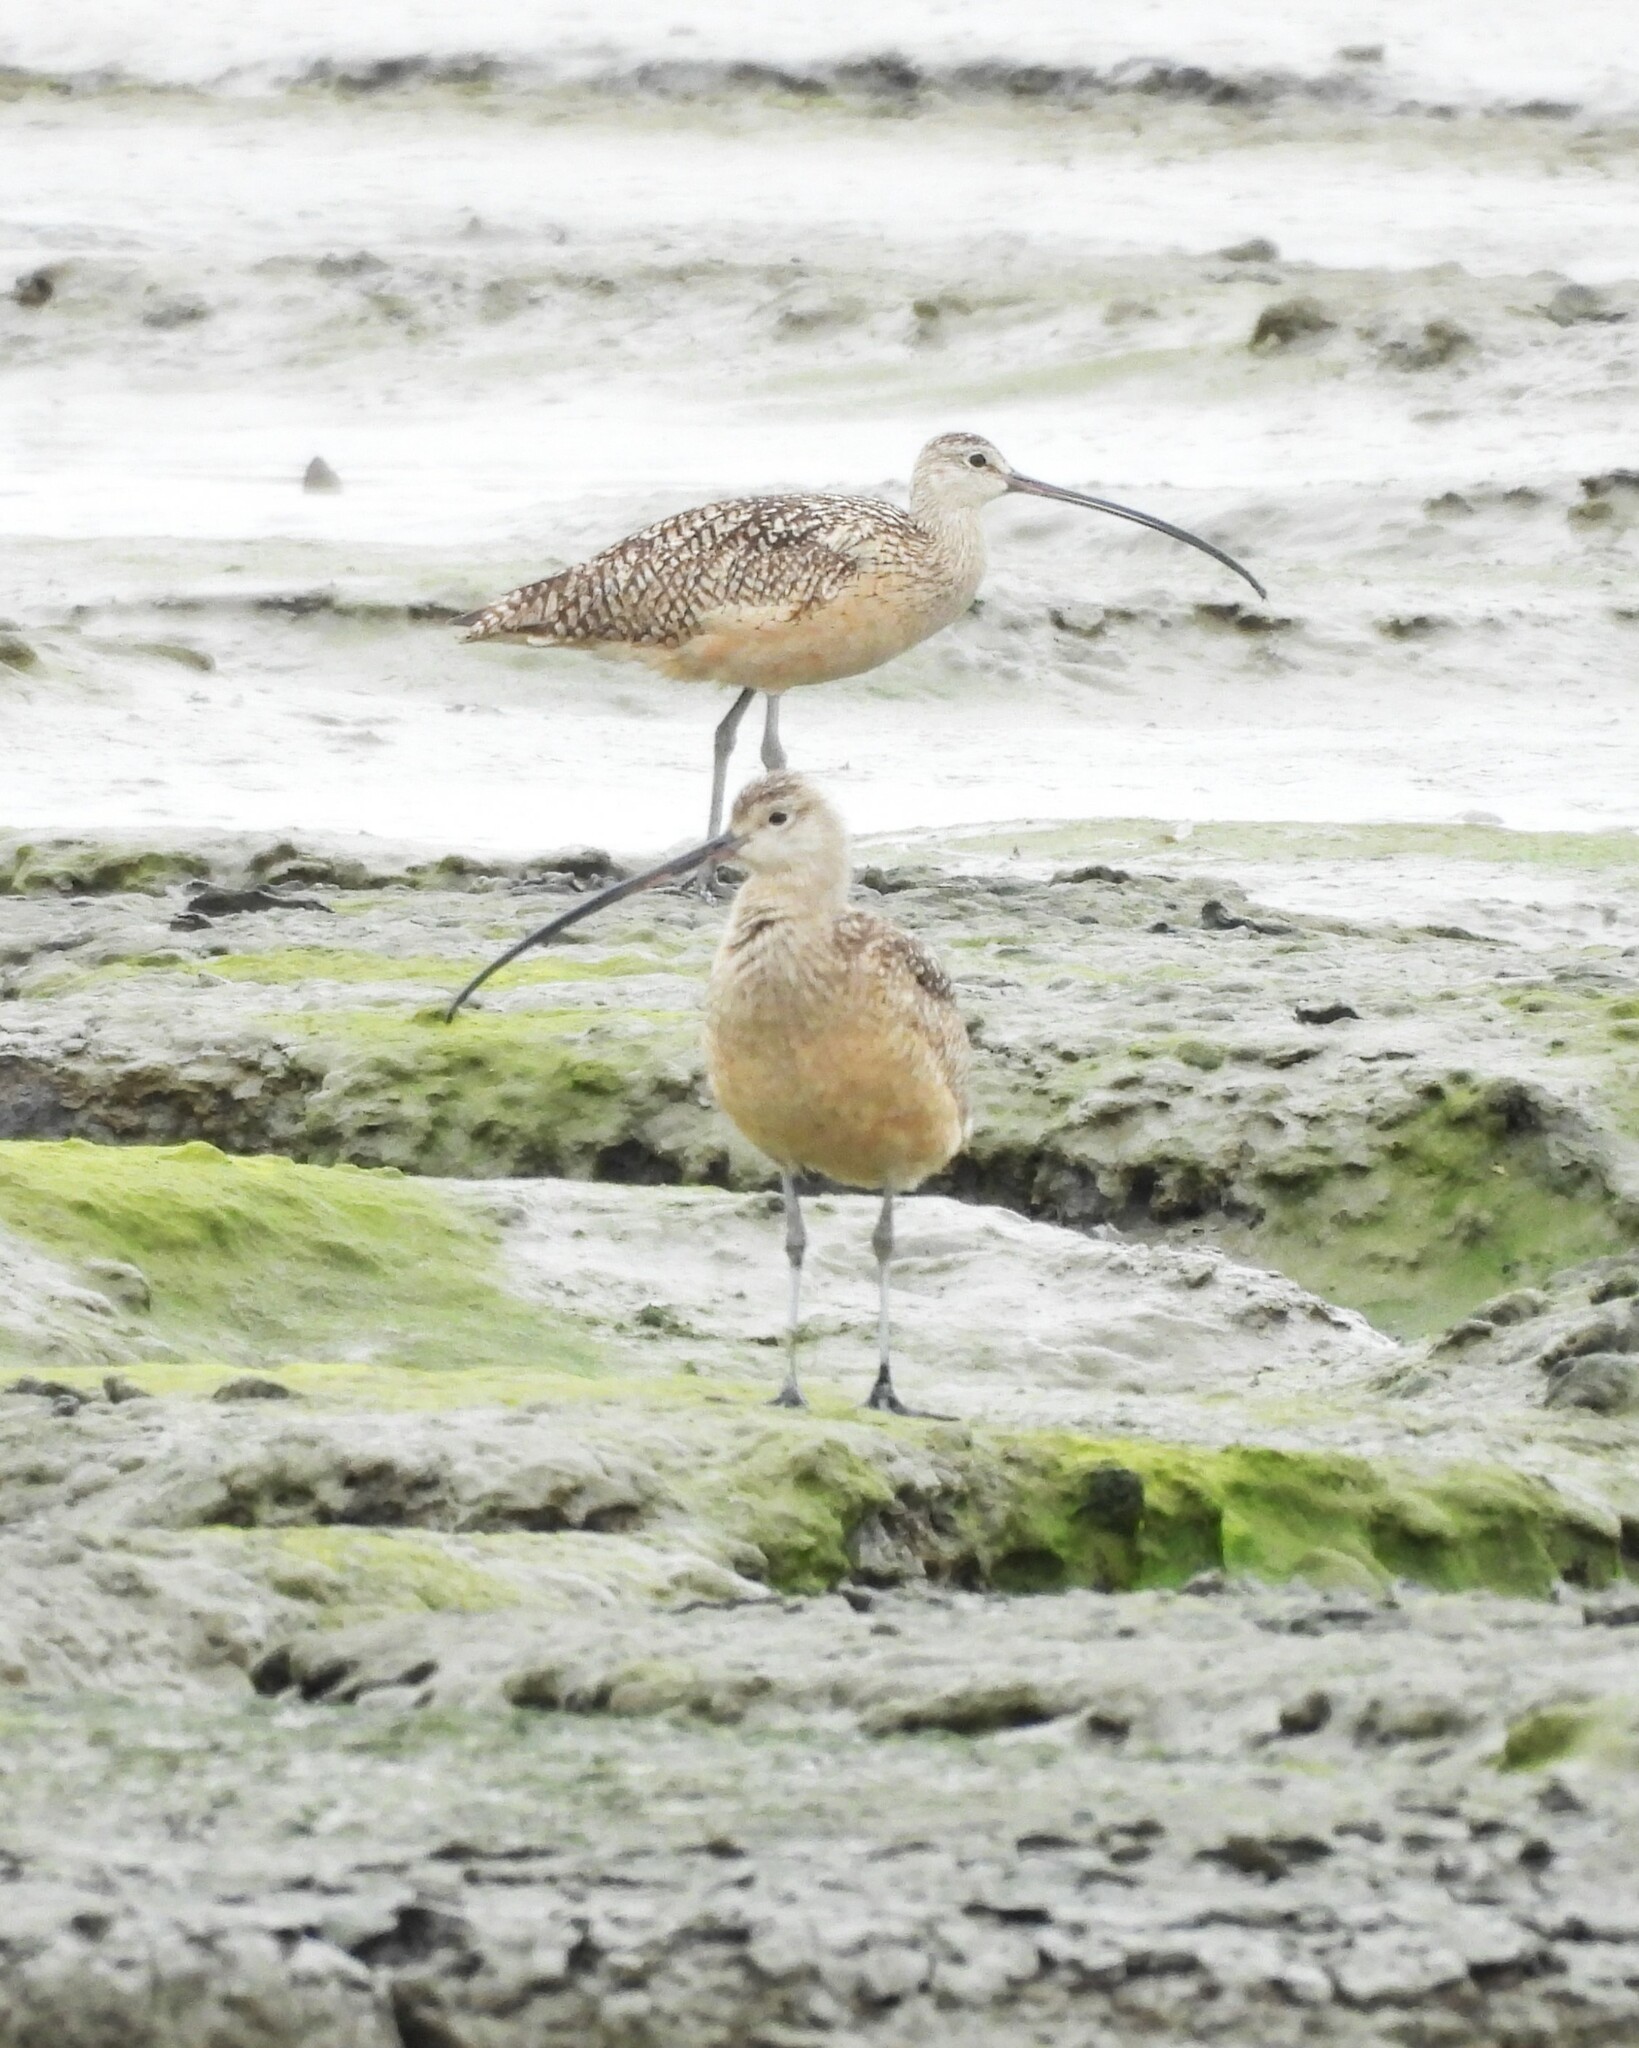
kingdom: Animalia
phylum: Chordata
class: Aves
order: Charadriiformes
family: Scolopacidae
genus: Numenius
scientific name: Numenius americanus
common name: Long-billed curlew
